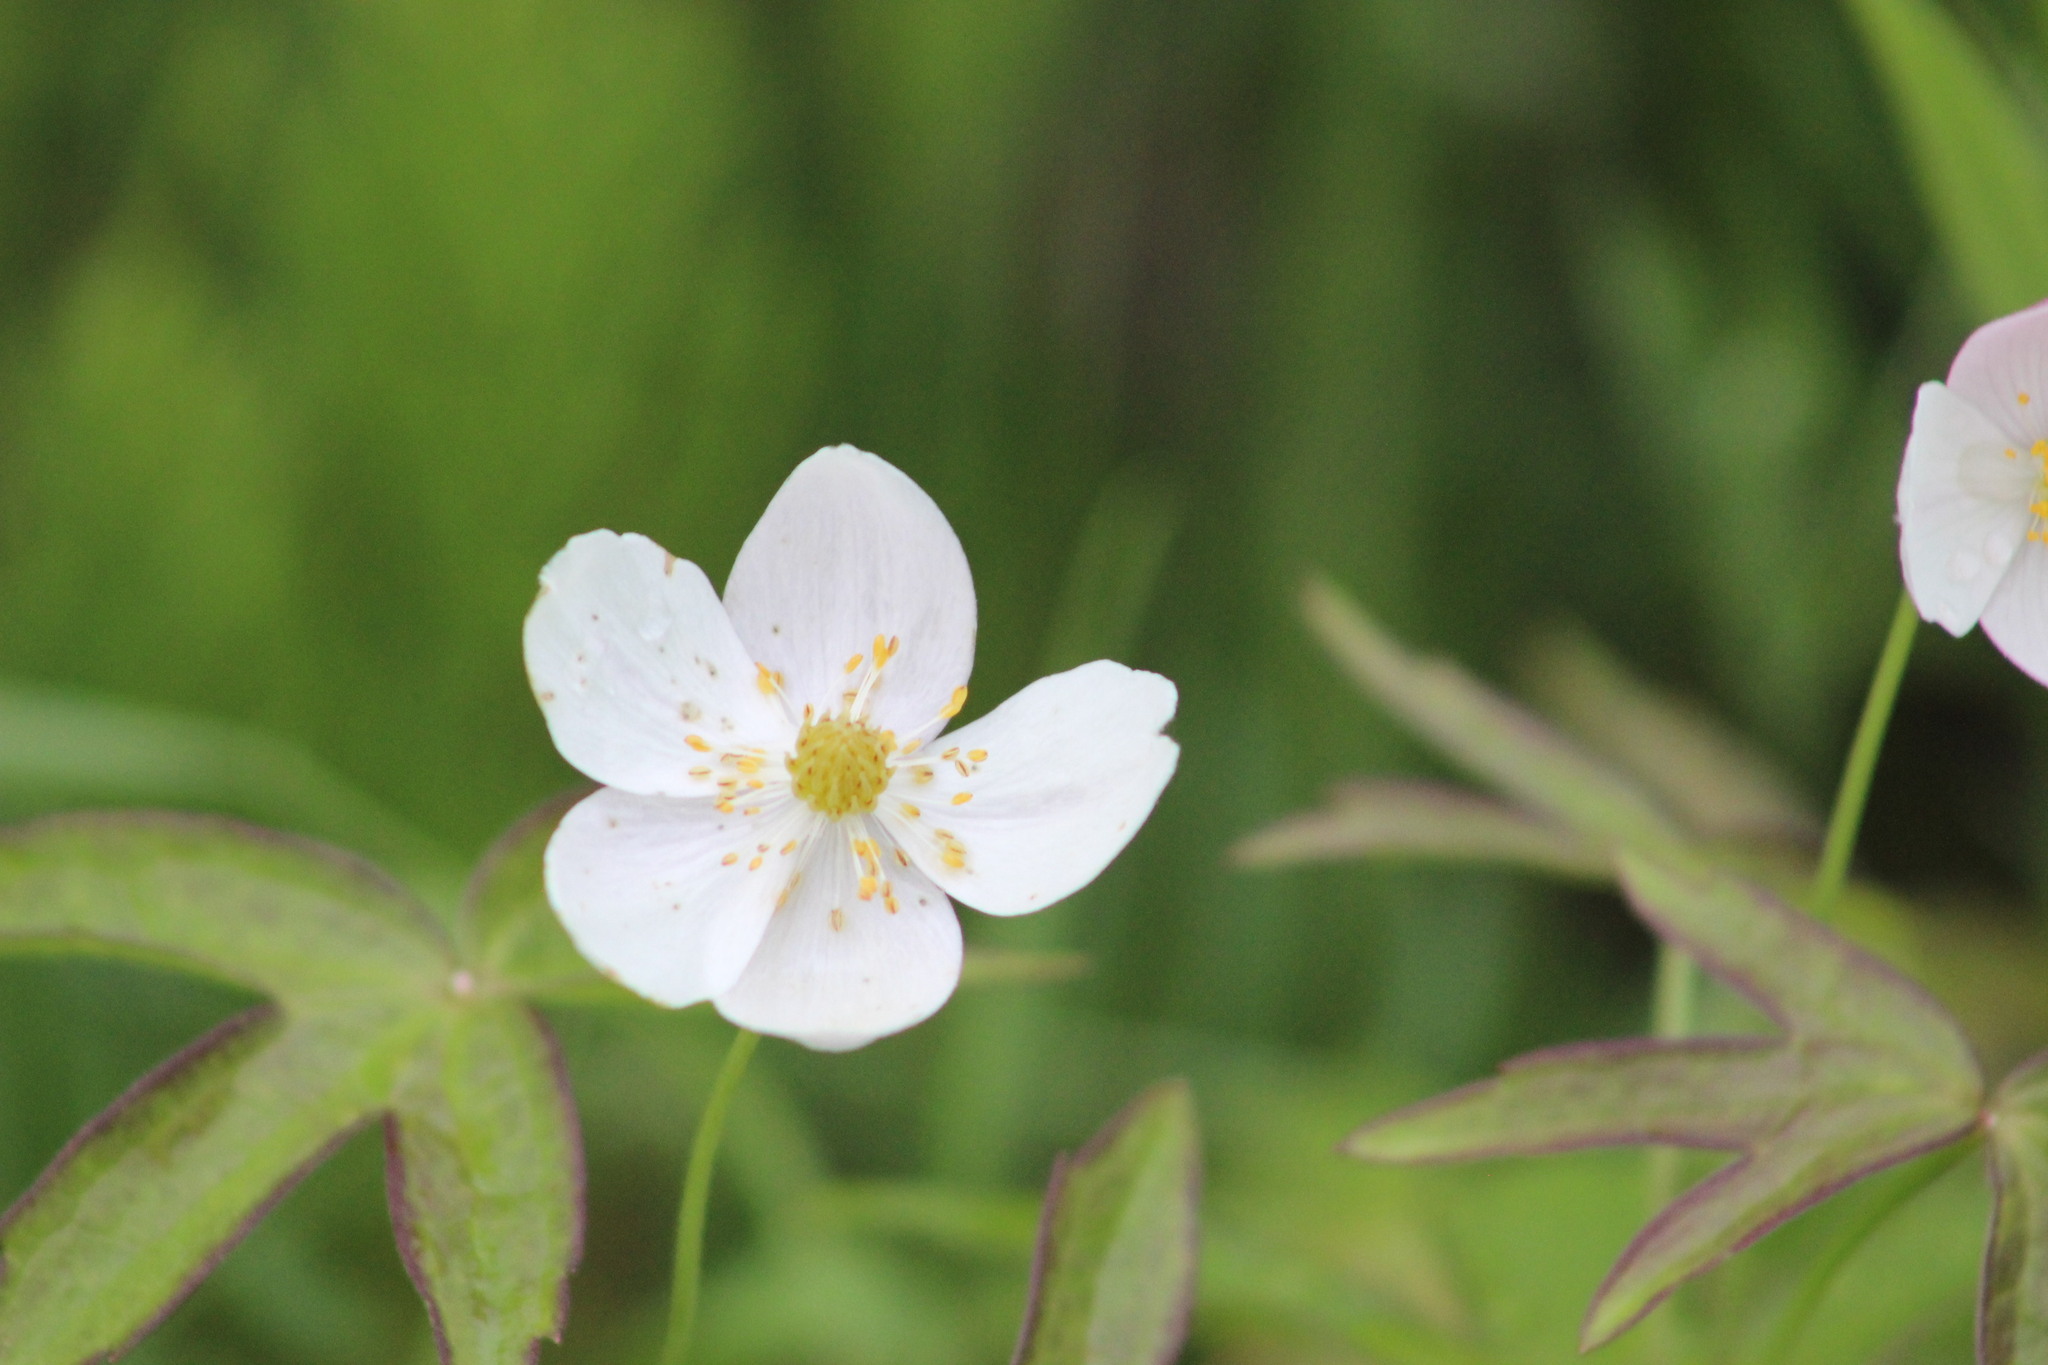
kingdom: Plantae
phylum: Tracheophyta
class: Magnoliopsida
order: Ranunculales
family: Ranunculaceae
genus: Anemonastrum
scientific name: Anemonastrum dichotomum
